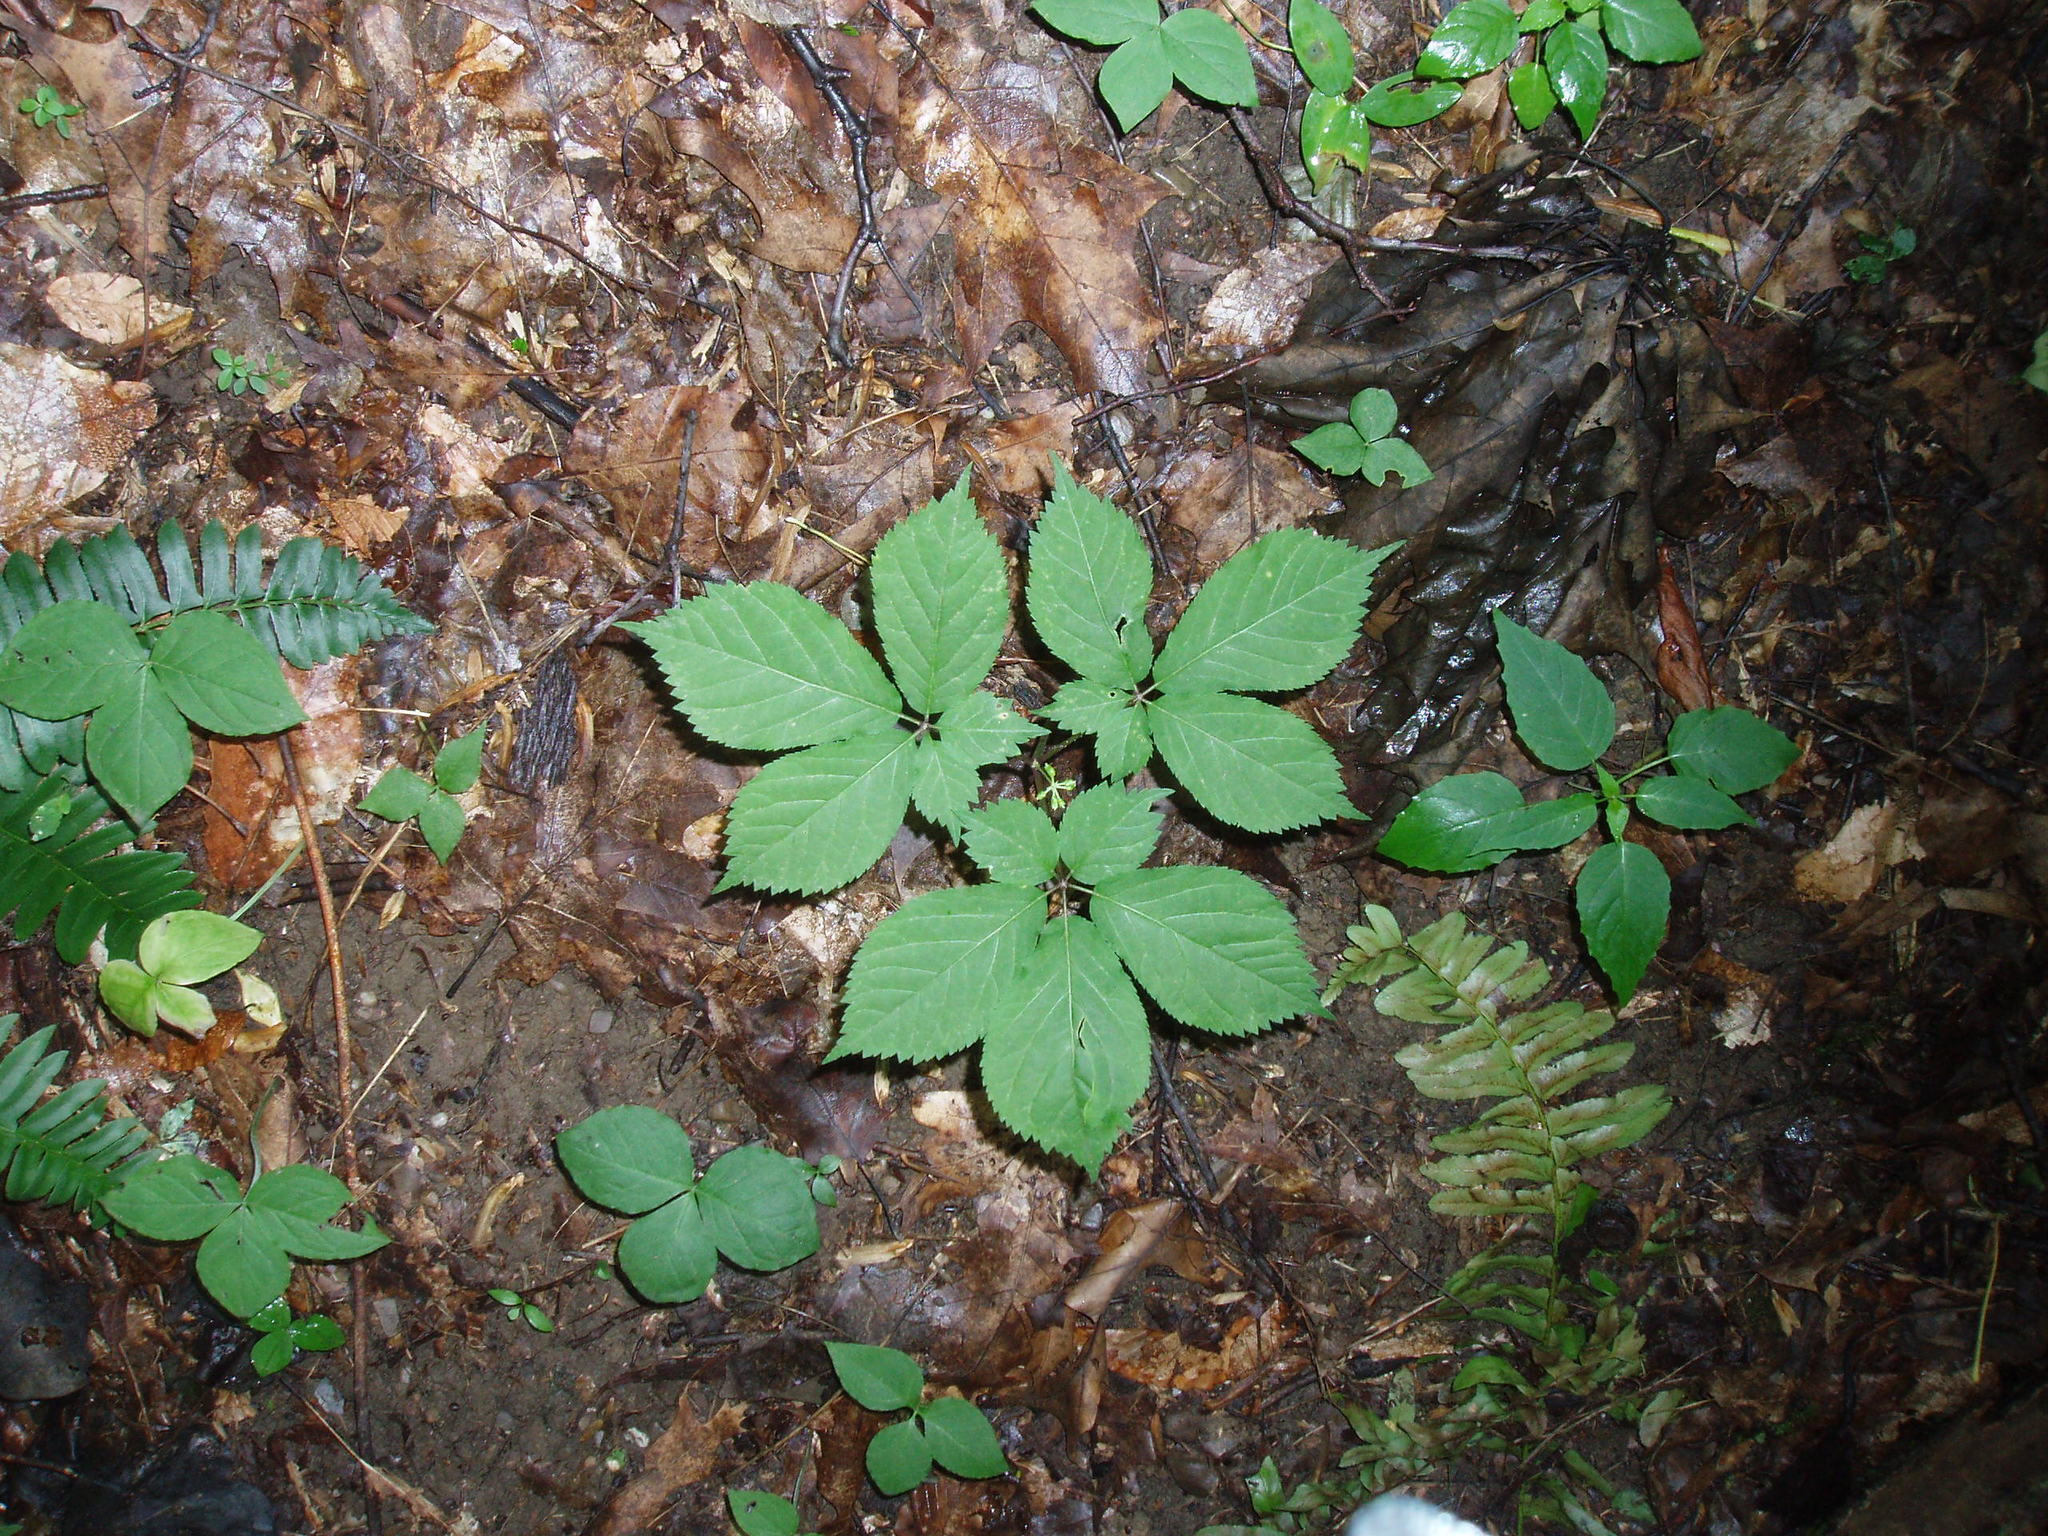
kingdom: Plantae
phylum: Tracheophyta
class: Magnoliopsida
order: Apiales
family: Araliaceae
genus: Panax
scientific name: Panax quinquefolius
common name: American ginseng
